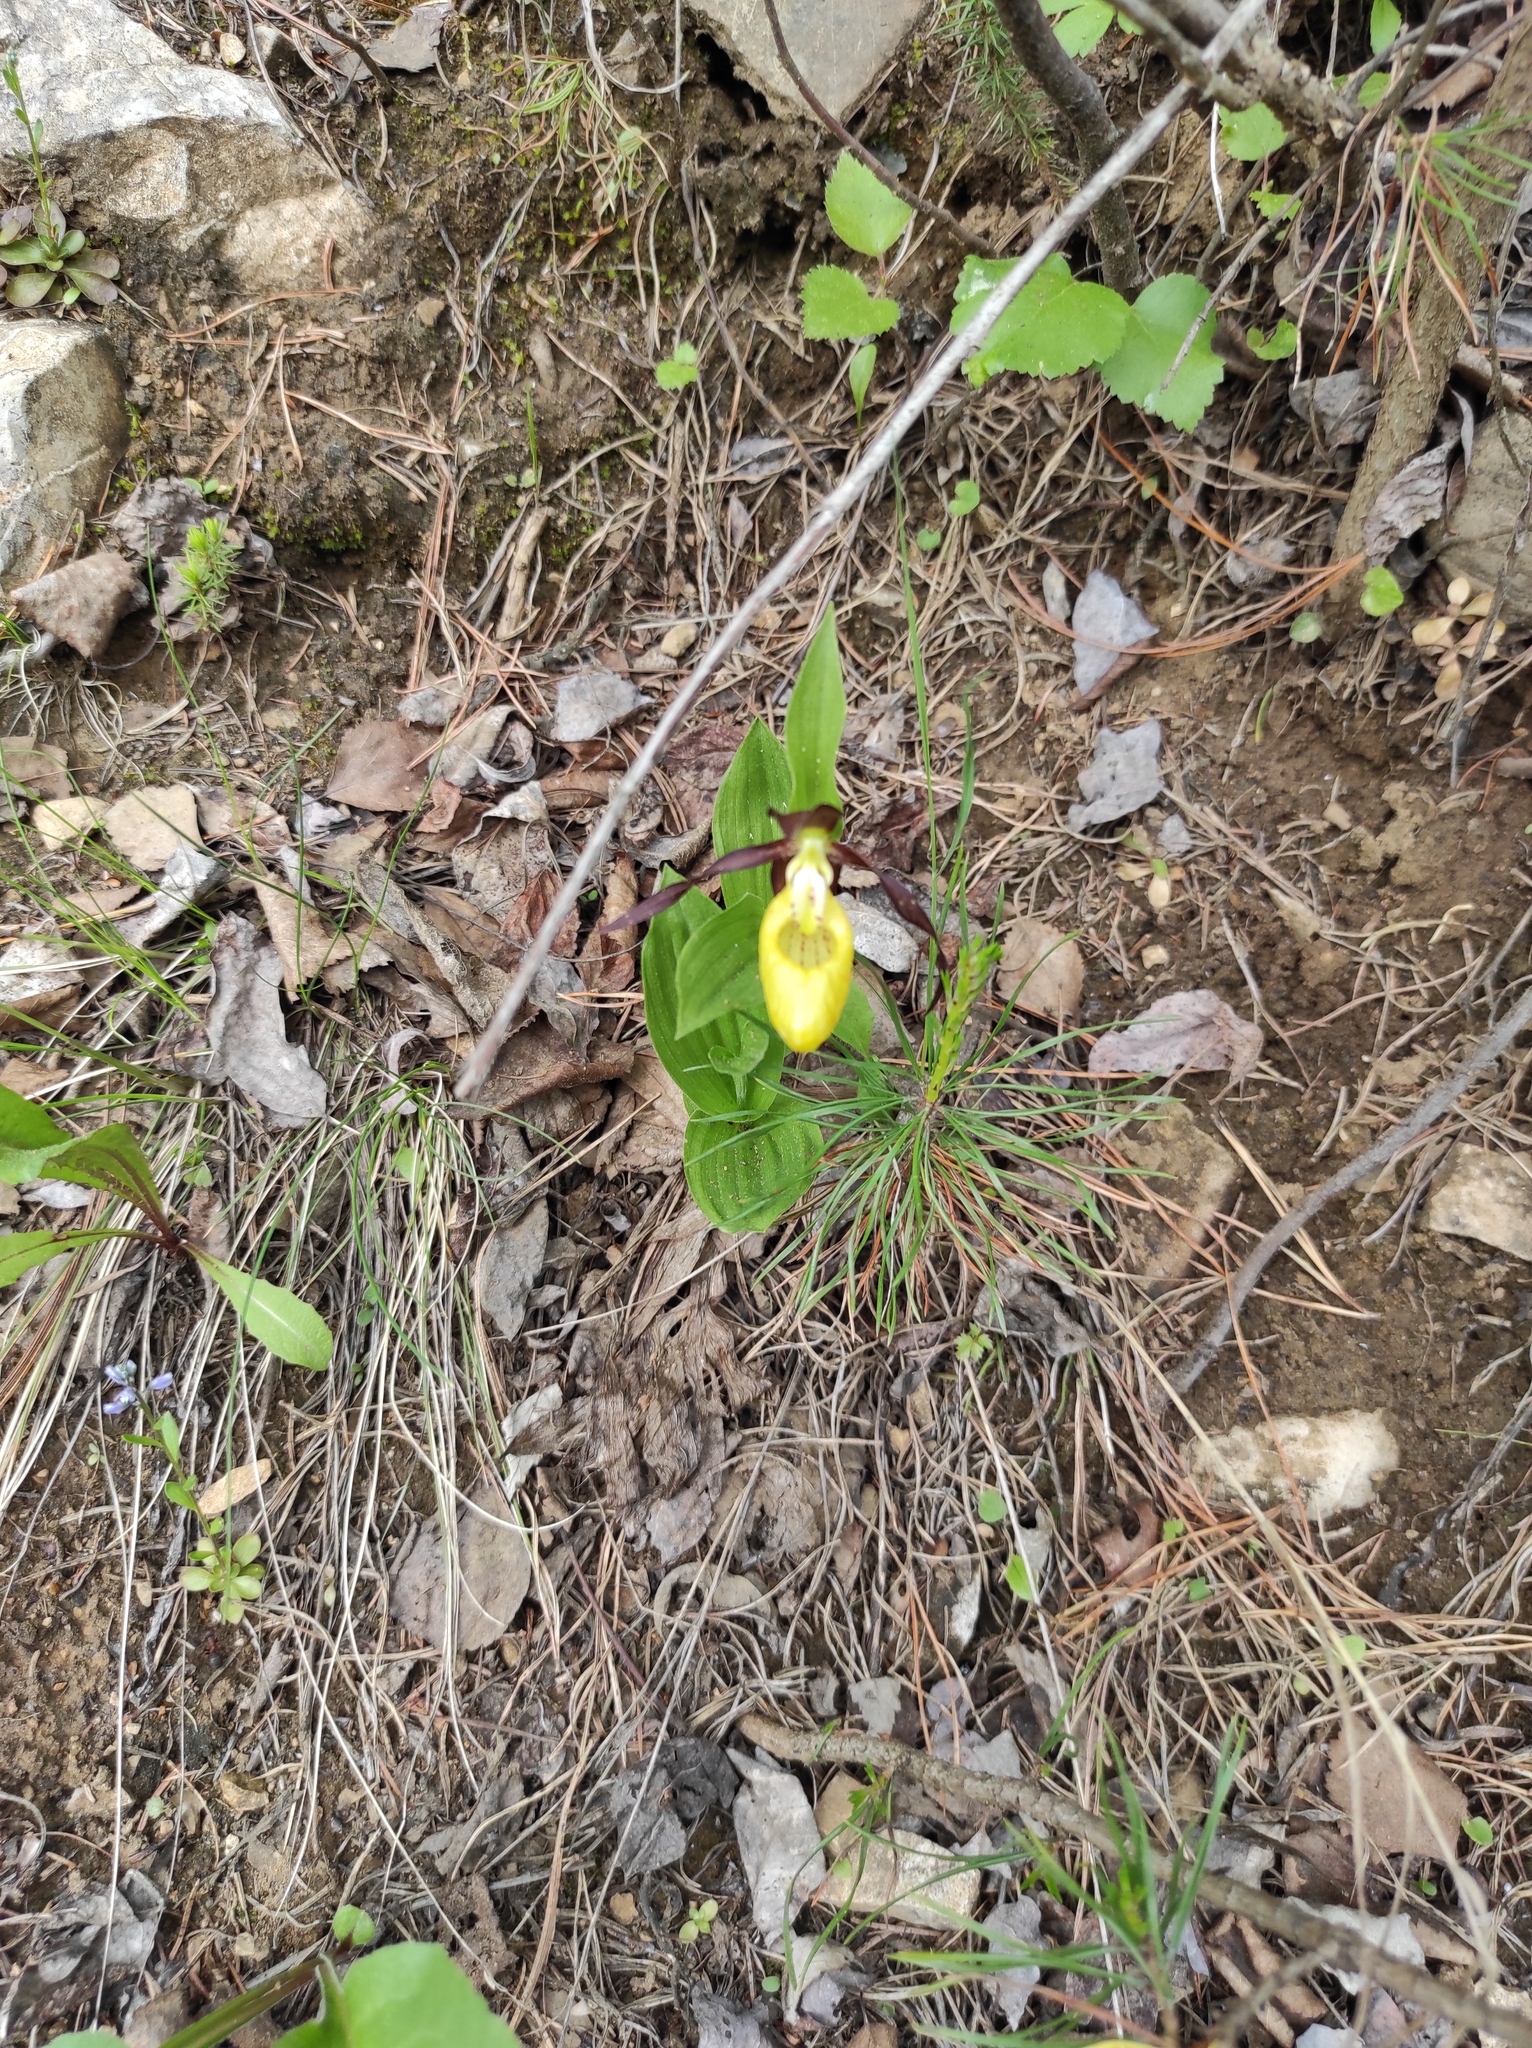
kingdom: Plantae
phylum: Tracheophyta
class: Liliopsida
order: Asparagales
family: Orchidaceae
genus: Cypripedium
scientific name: Cypripedium calceolus
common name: Lady's-slipper
